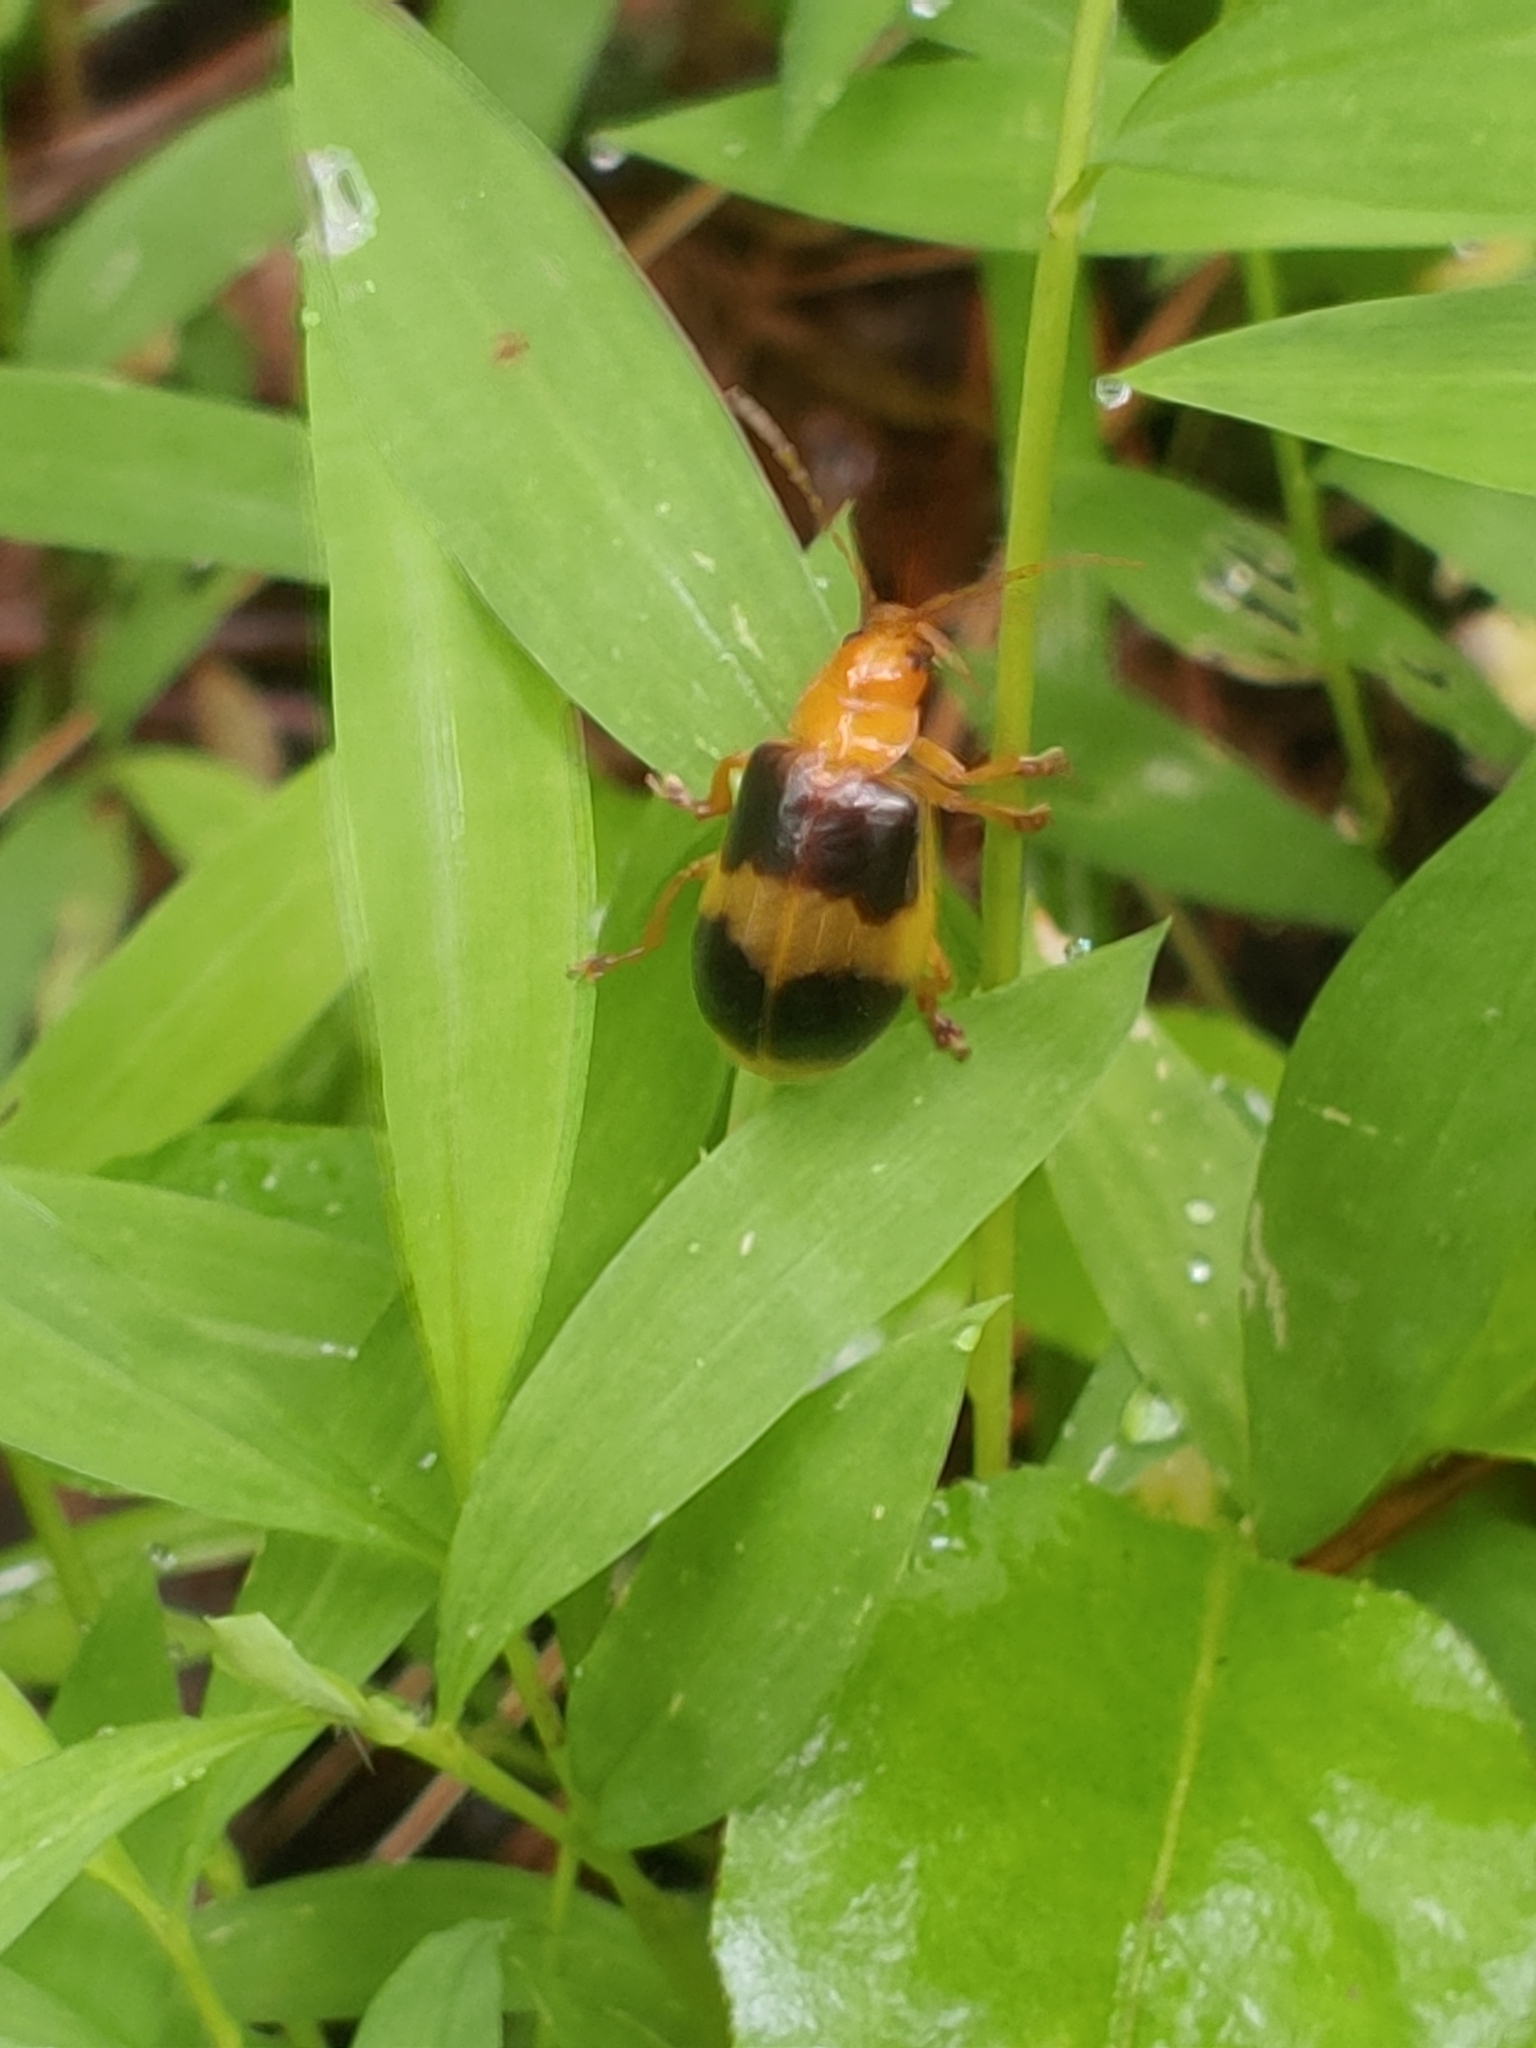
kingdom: Animalia
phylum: Arthropoda
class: Insecta
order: Coleoptera
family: Chrysomelidae
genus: Monocesta
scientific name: Monocesta coryli
